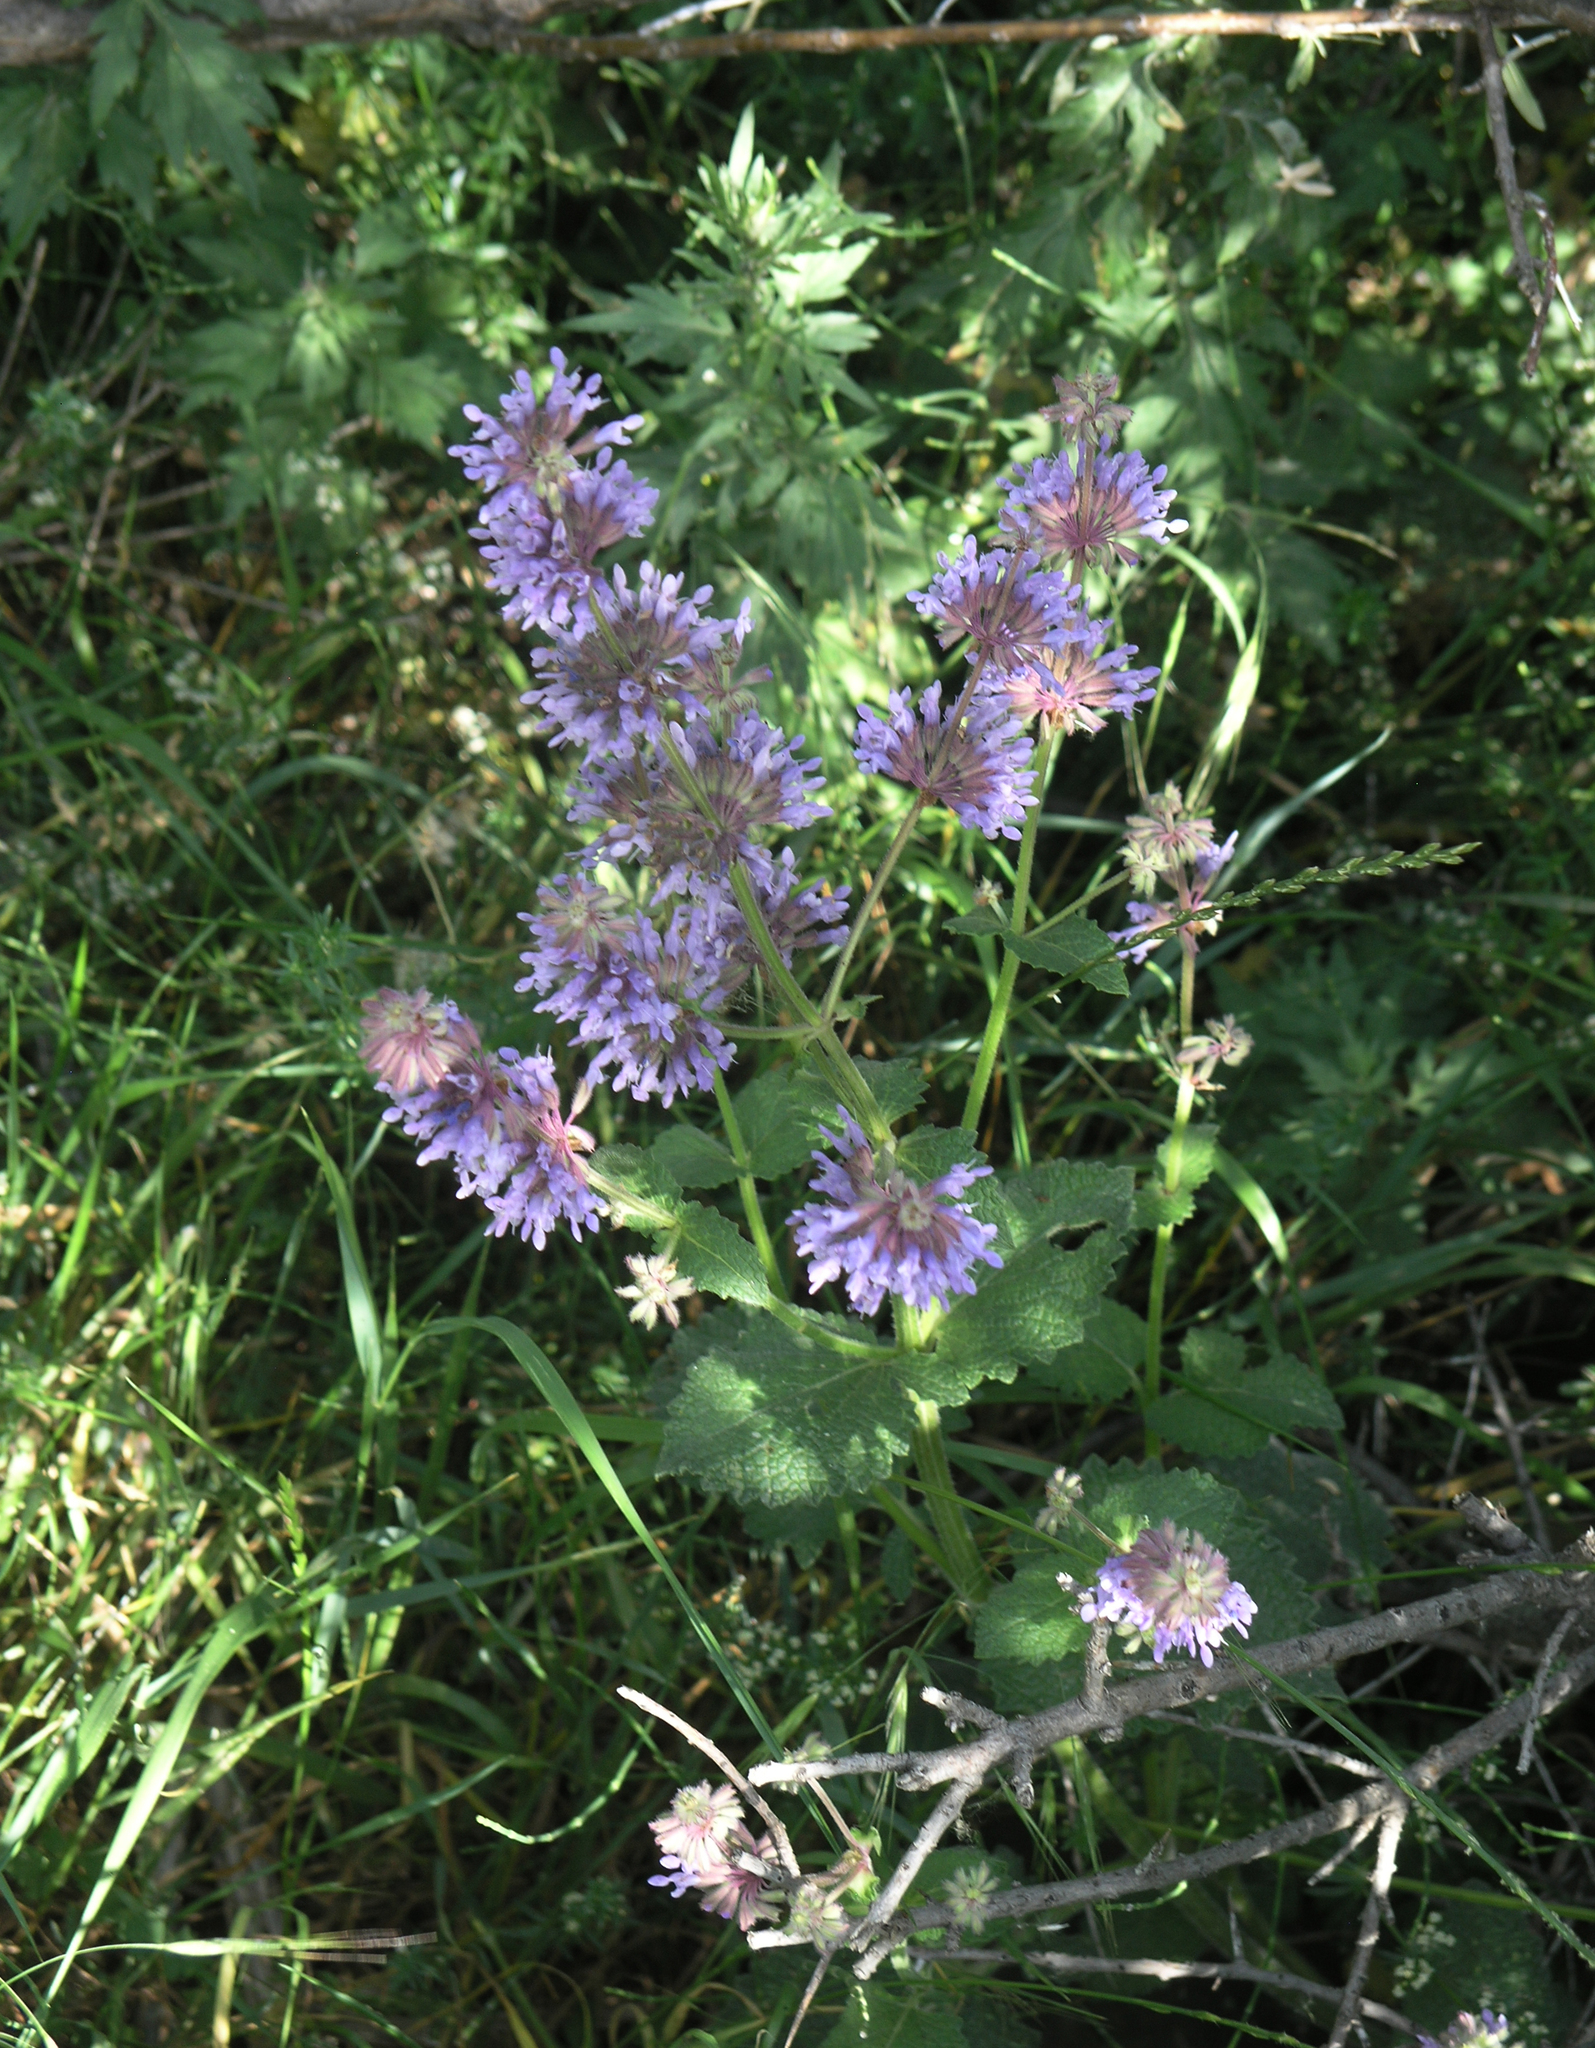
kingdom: Plantae
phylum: Tracheophyta
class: Magnoliopsida
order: Lamiales
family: Lamiaceae
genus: Salvia
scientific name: Salvia verticillata
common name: Whorled clary
